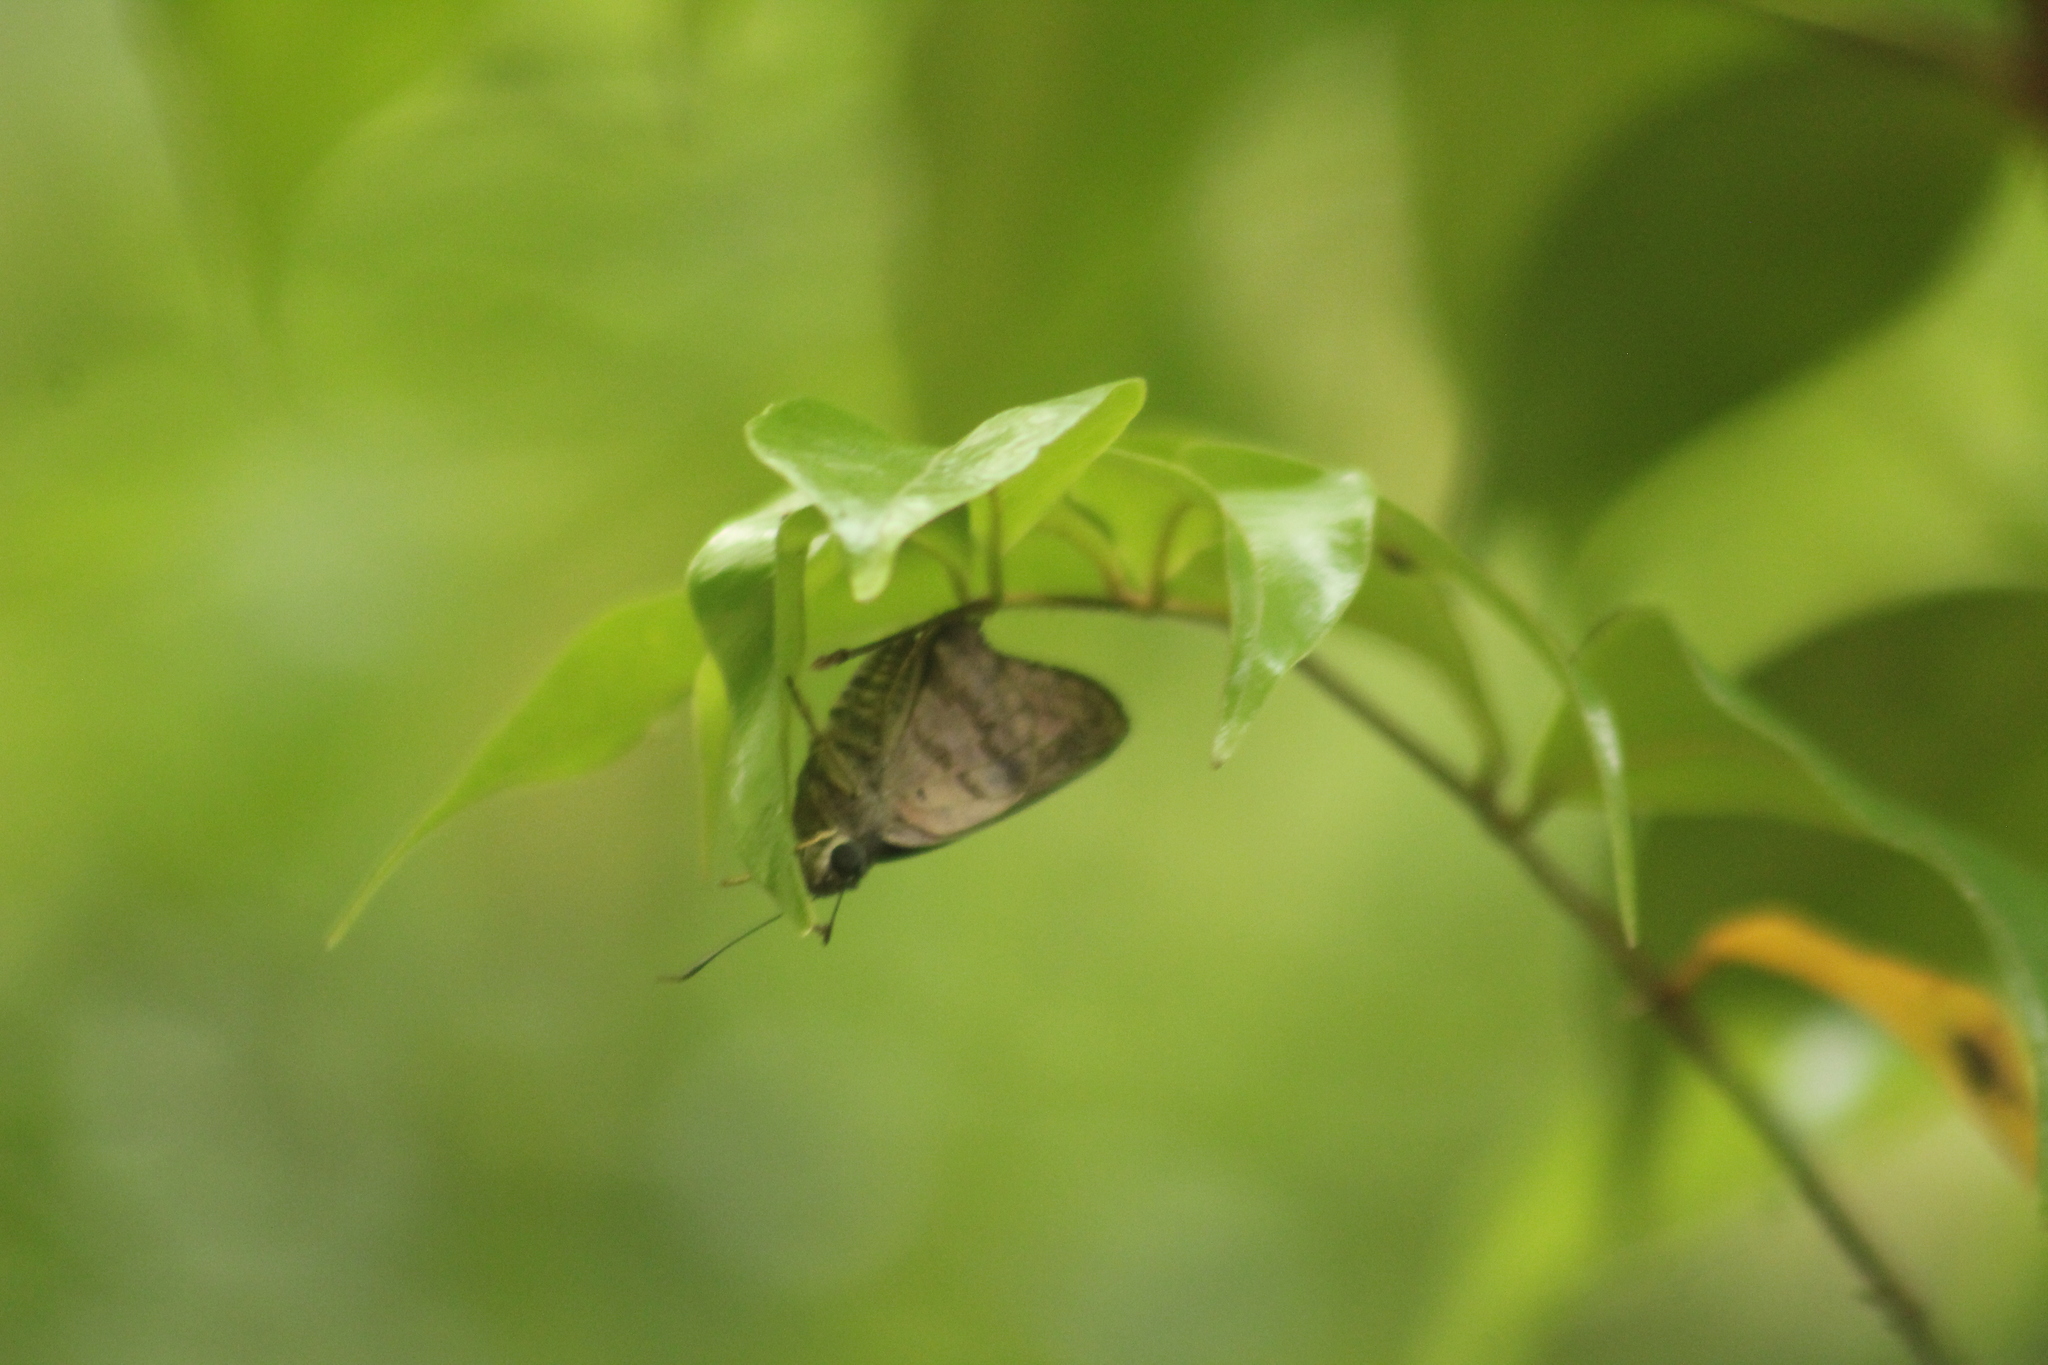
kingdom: Animalia
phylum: Arthropoda
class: Insecta
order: Lepidoptera
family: Hesperiidae
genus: Polygonus
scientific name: Polygonus leo
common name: Hammoch skipper
